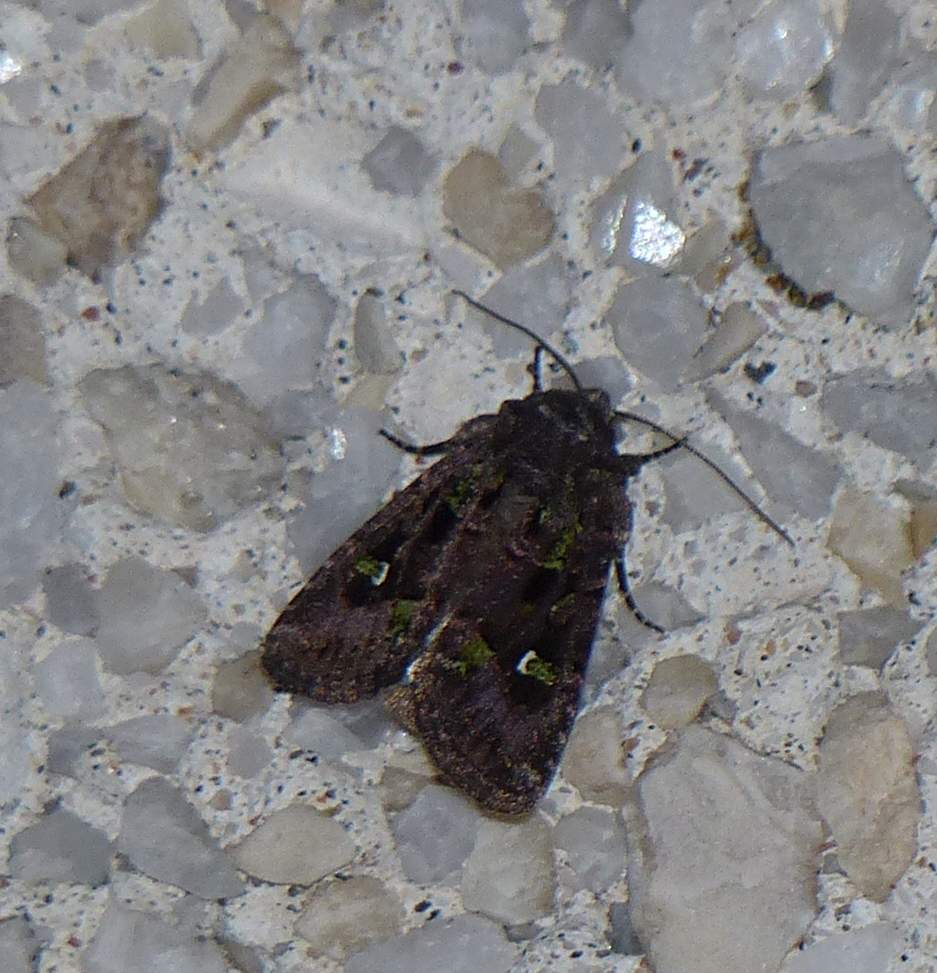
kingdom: Animalia
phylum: Arthropoda
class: Insecta
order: Lepidoptera
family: Noctuidae
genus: Lacinipolia
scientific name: Lacinipolia renigera
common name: Kidney-spotted minor
